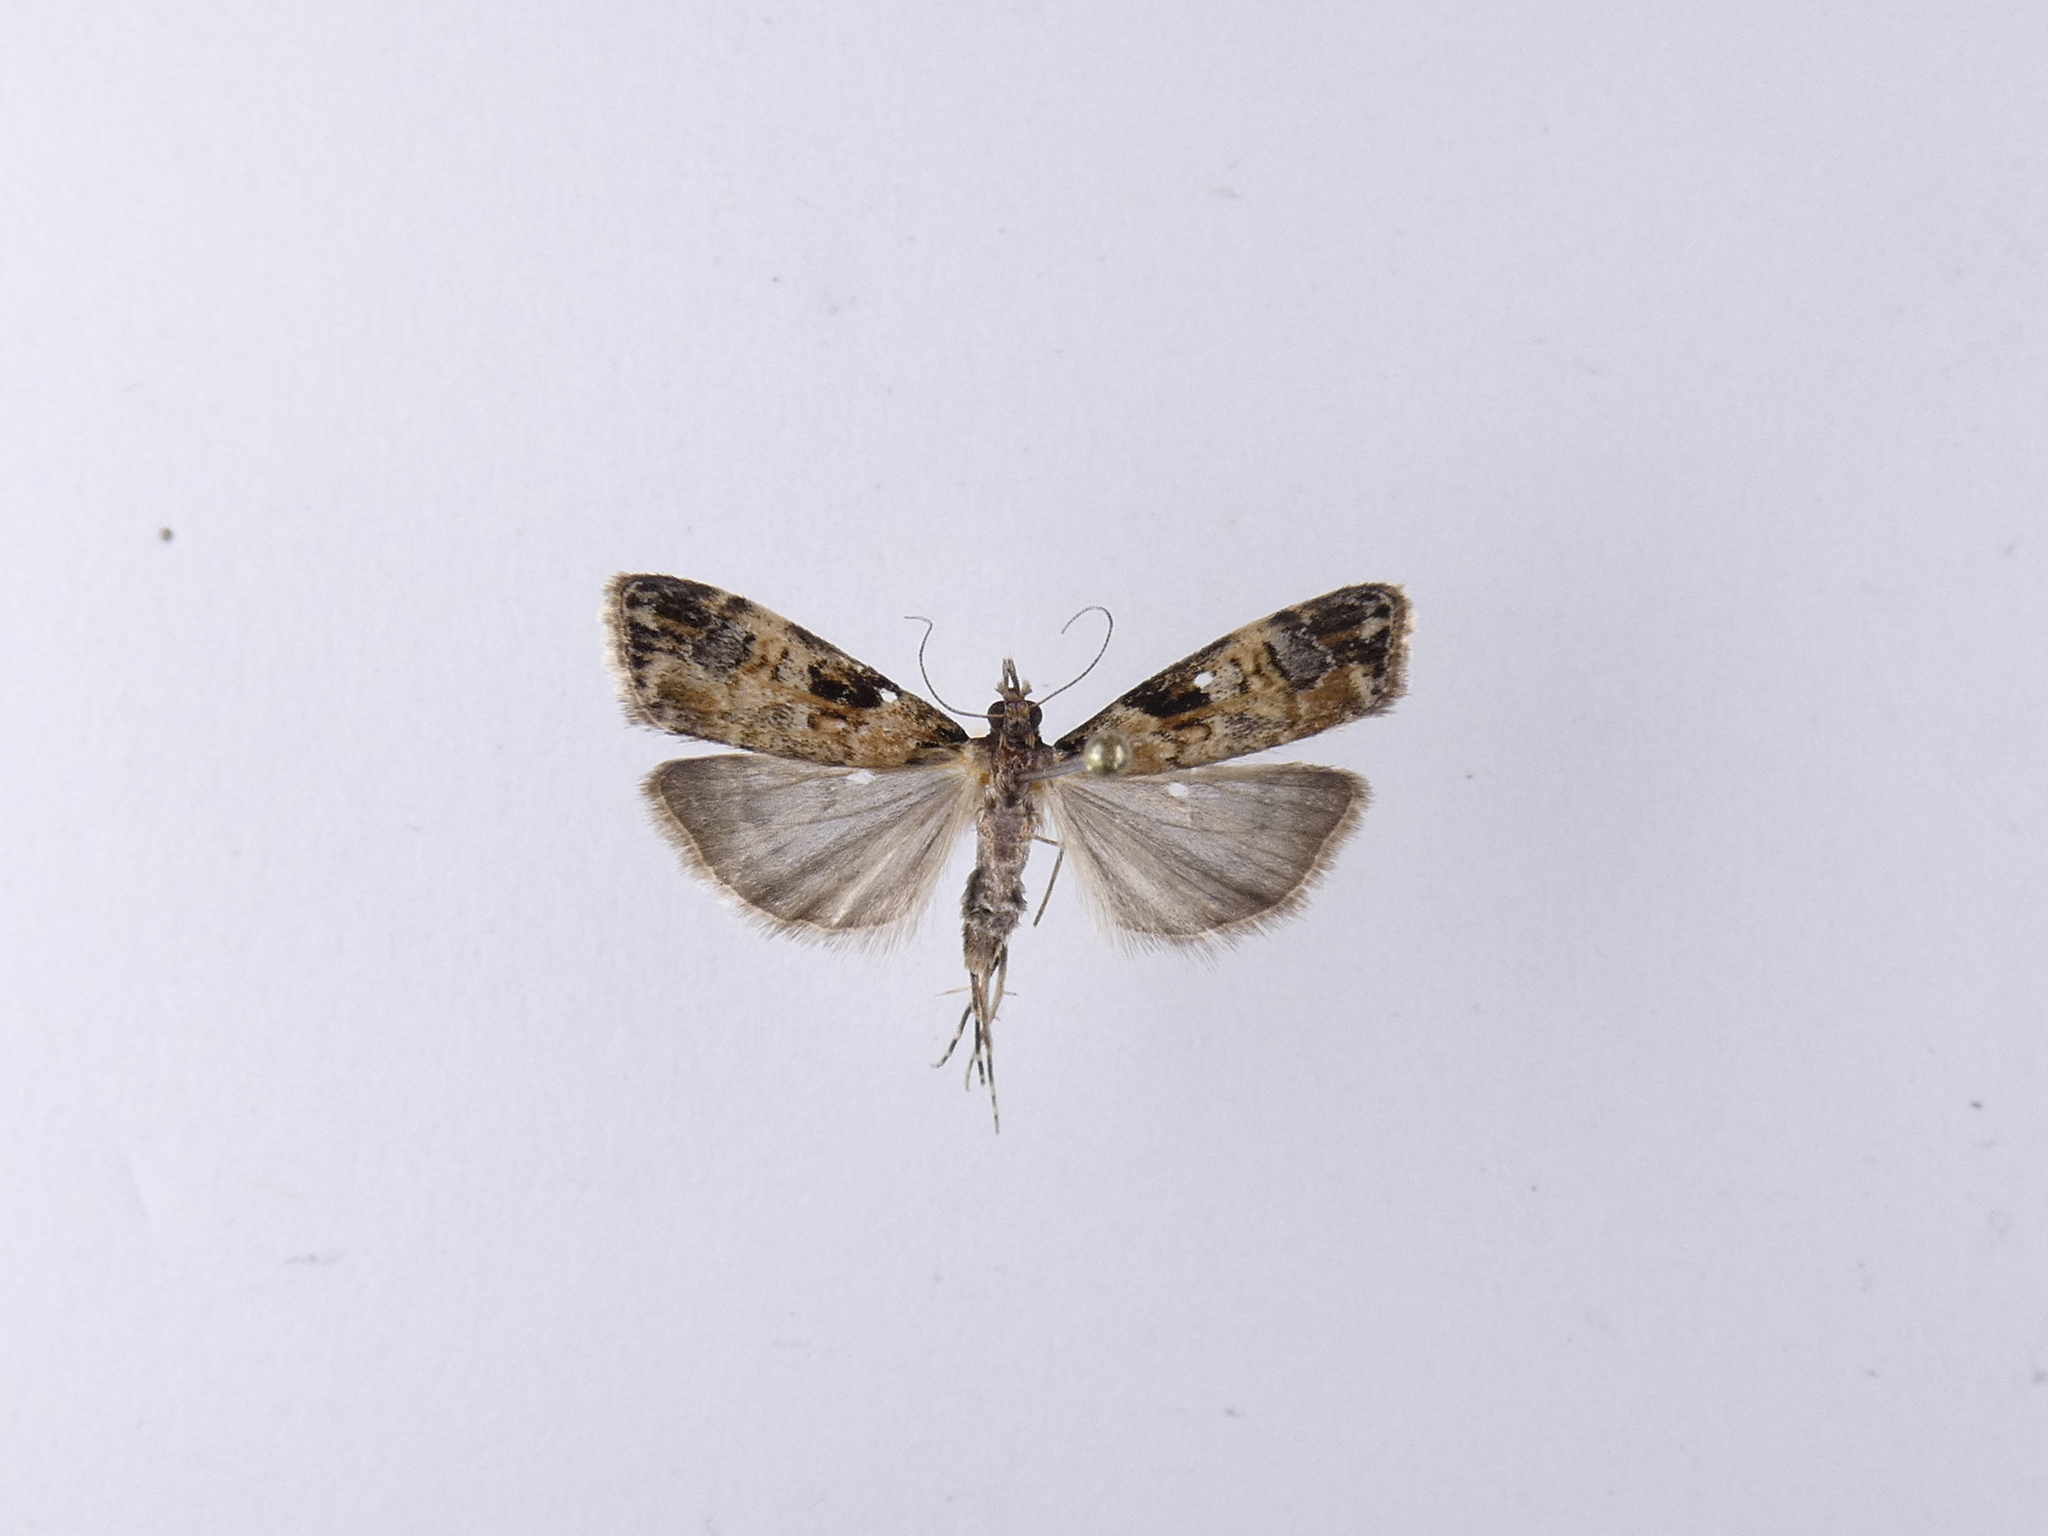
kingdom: Animalia
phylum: Arthropoda
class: Insecta
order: Lepidoptera
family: Crambidae
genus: Scoparia
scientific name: Scoparia acharis
